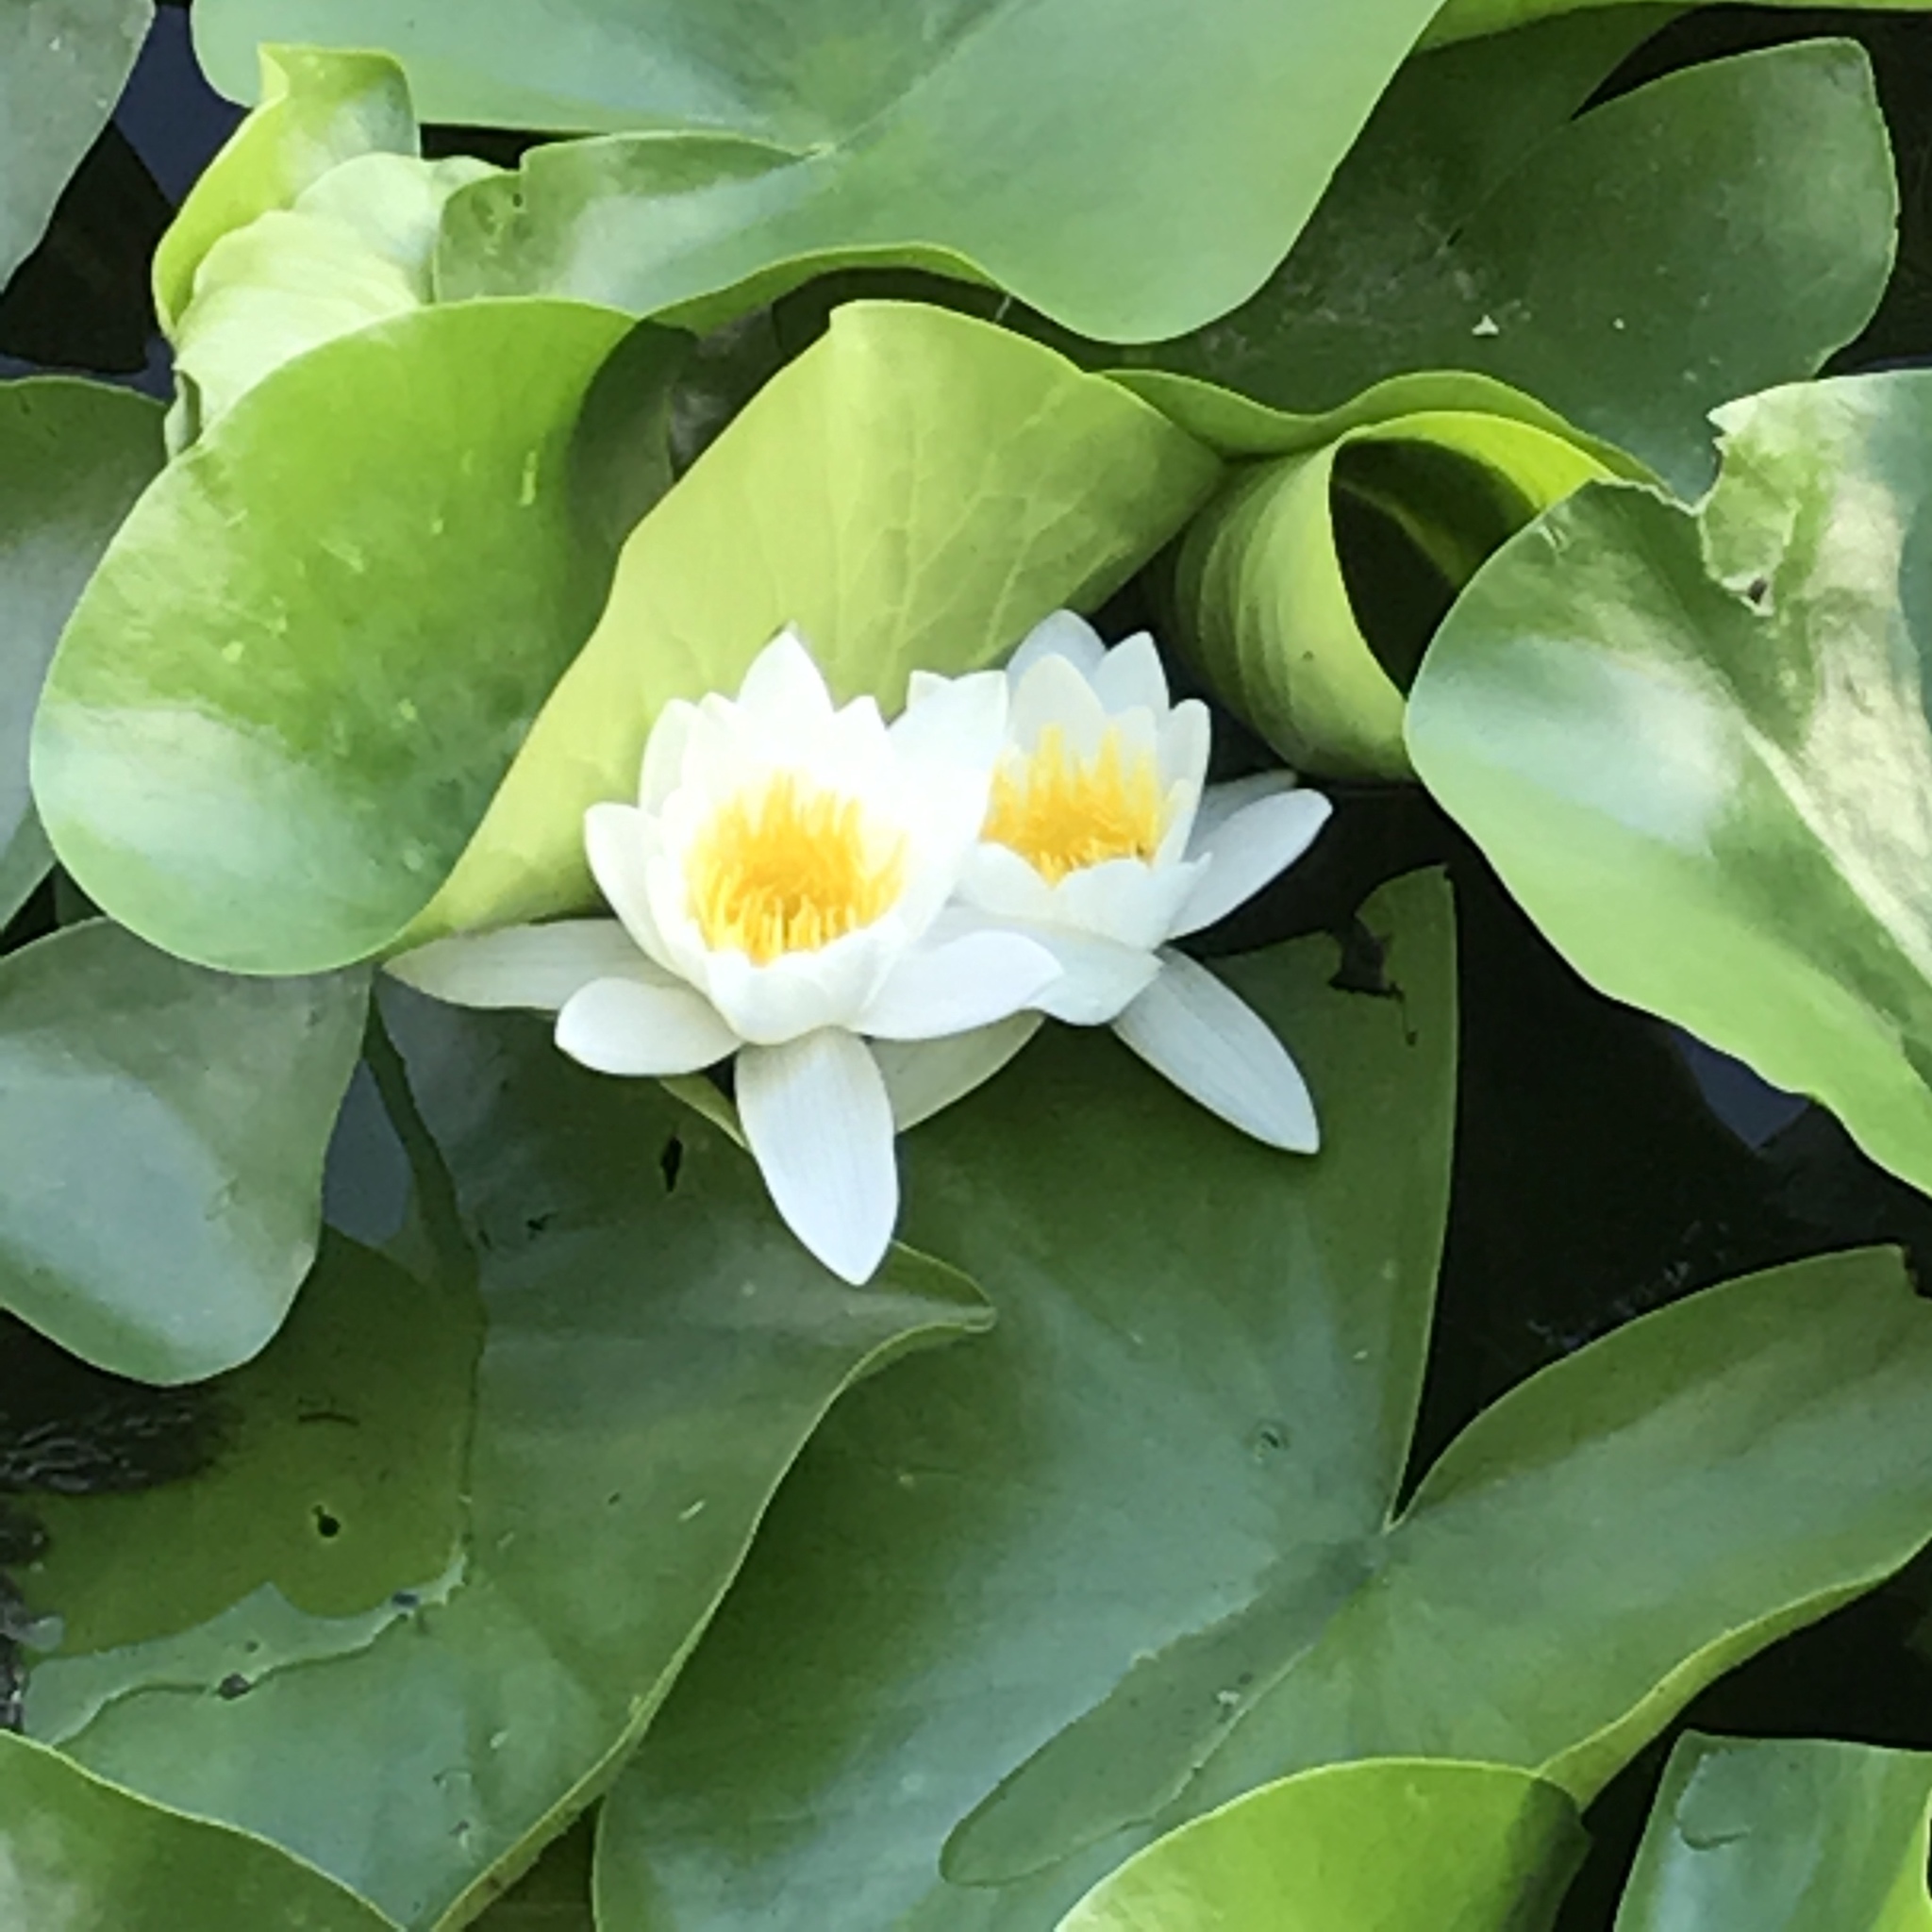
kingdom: Plantae
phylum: Tracheophyta
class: Magnoliopsida
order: Nymphaeales
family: Nymphaeaceae
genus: Nymphaea
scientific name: Nymphaea alba
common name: White water-lily
